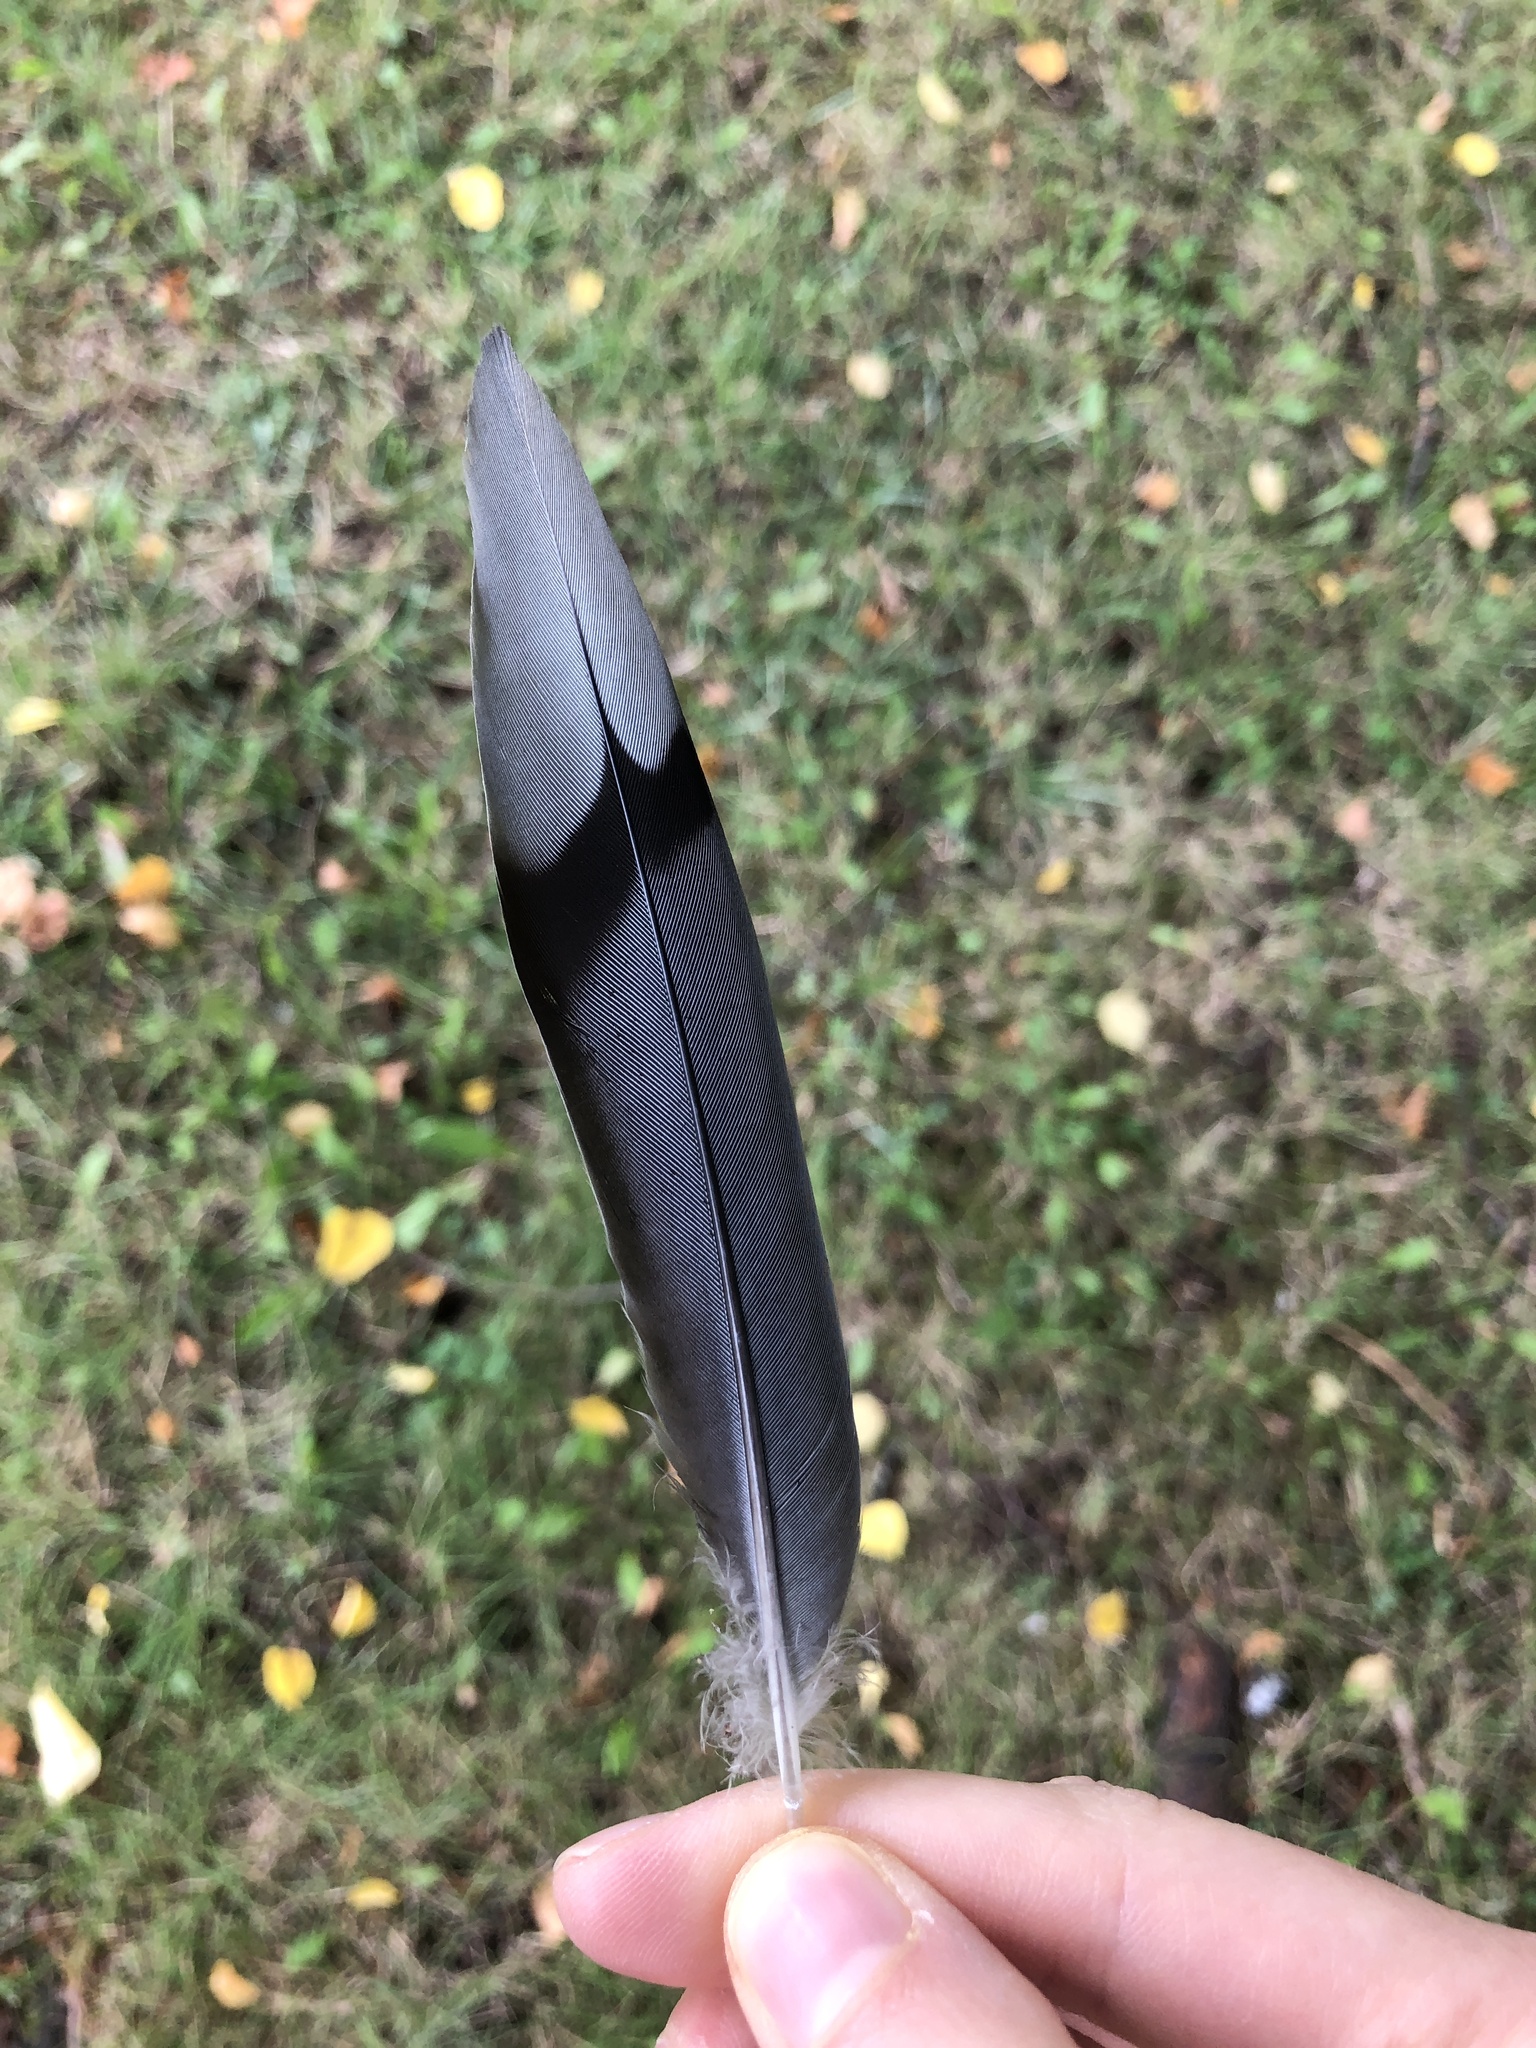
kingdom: Animalia
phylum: Chordata
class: Aves
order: Columbiformes
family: Columbidae
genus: Zenaida
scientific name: Zenaida macroura
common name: Mourning dove
